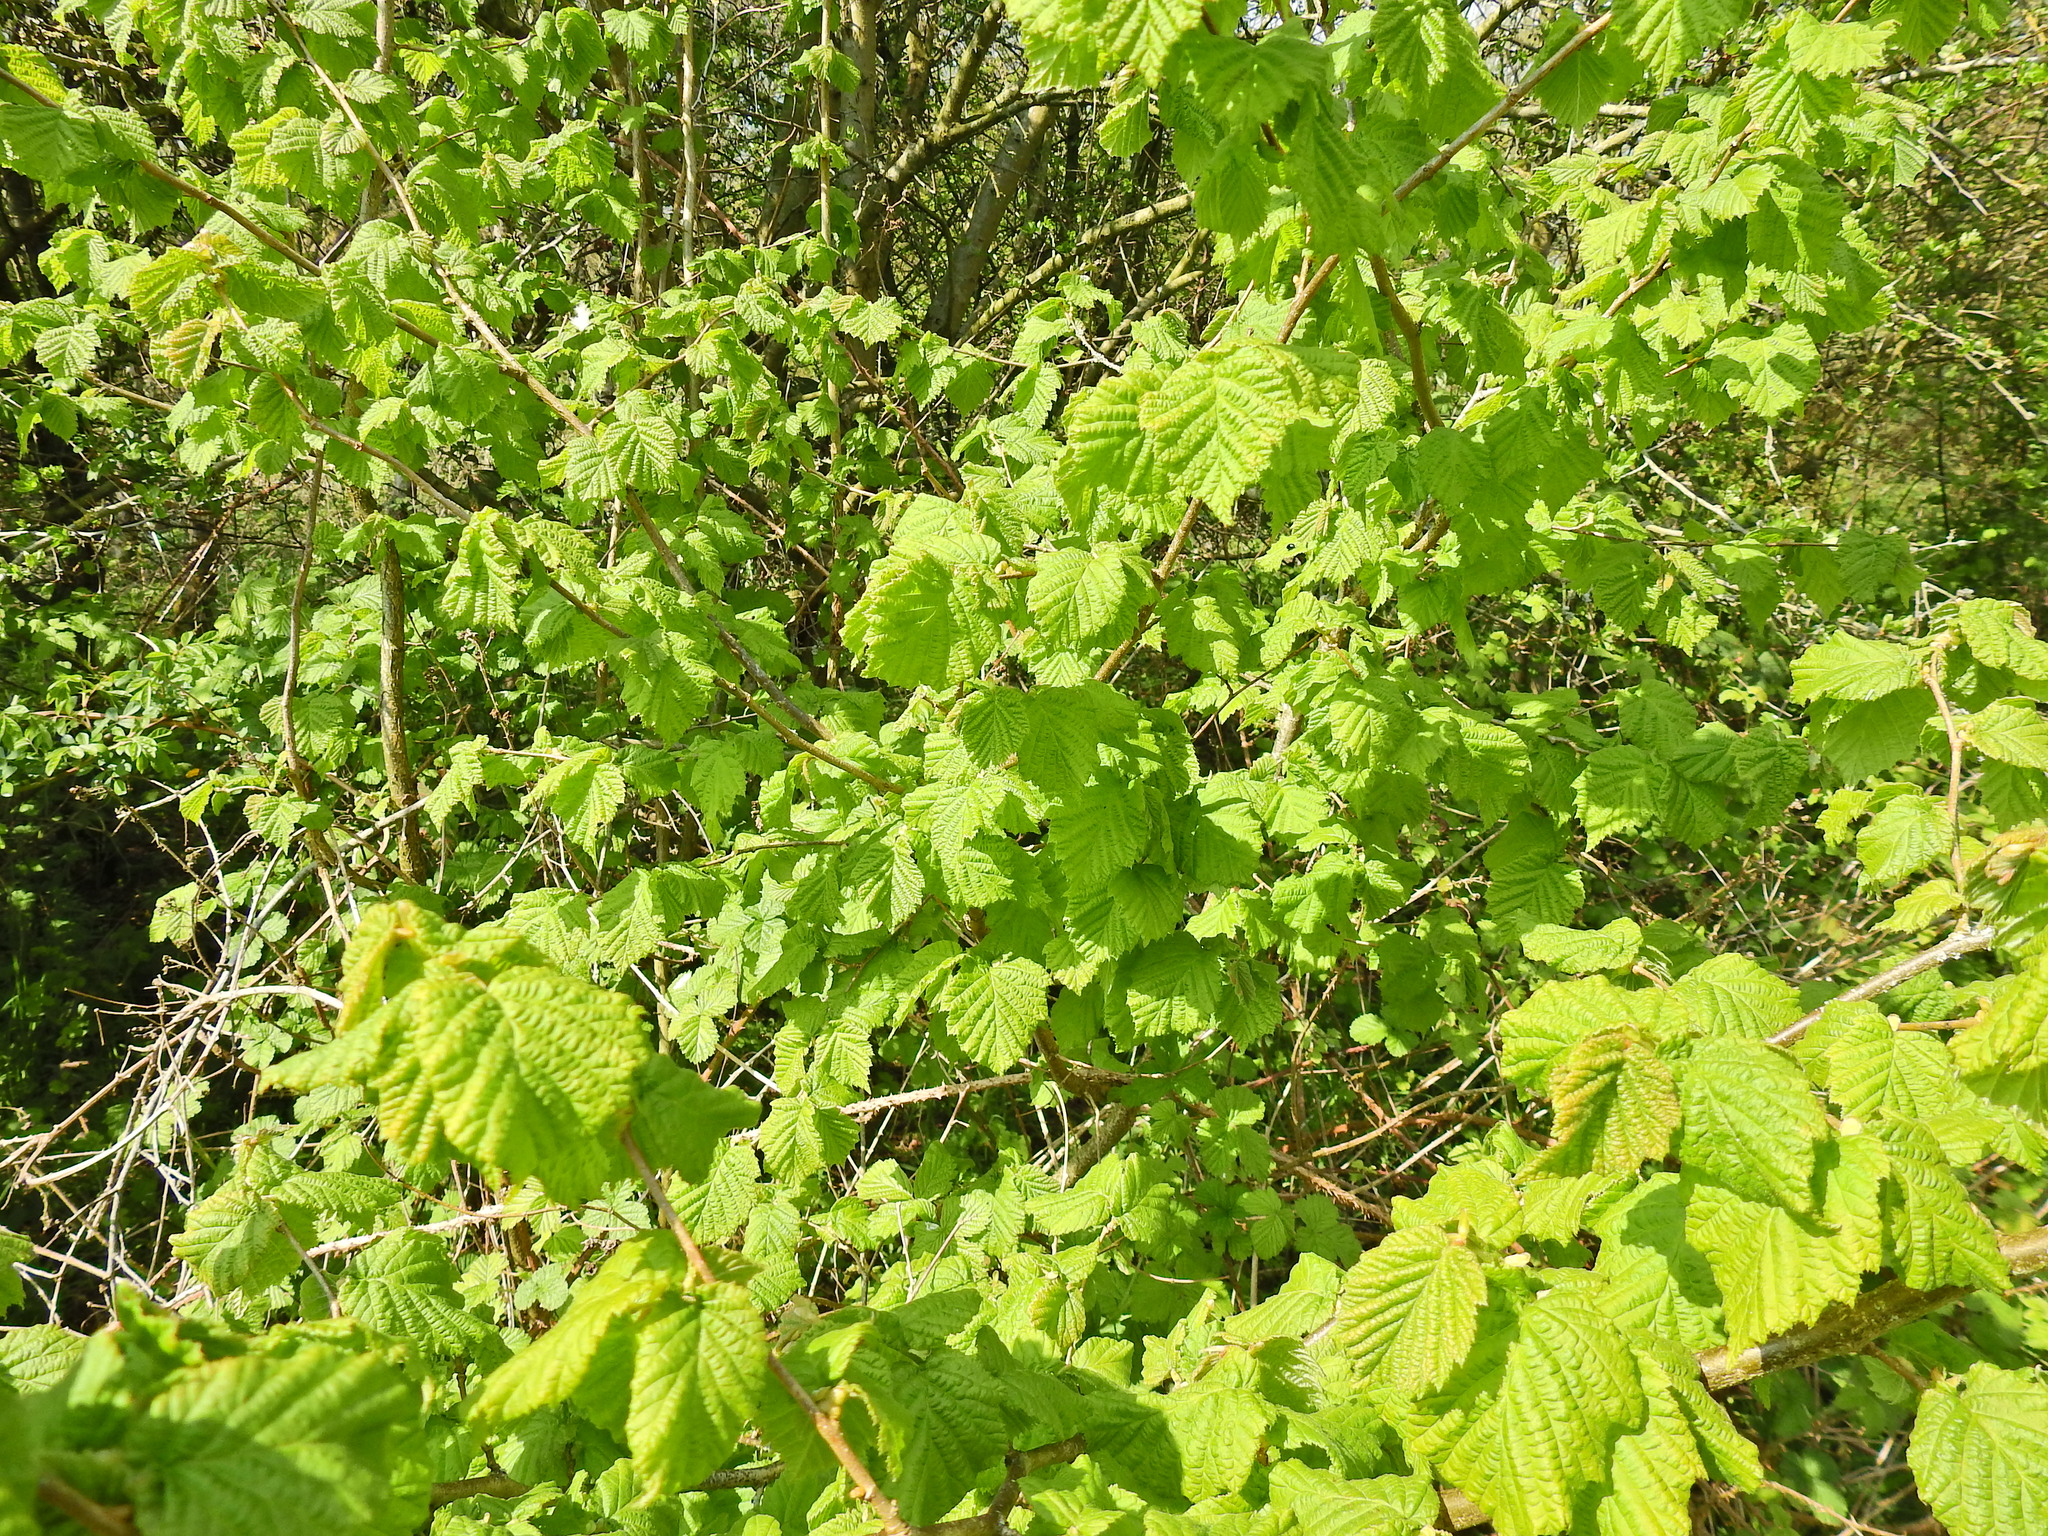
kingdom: Plantae
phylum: Tracheophyta
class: Magnoliopsida
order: Fagales
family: Betulaceae
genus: Corylus
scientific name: Corylus avellana
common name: European hazel
